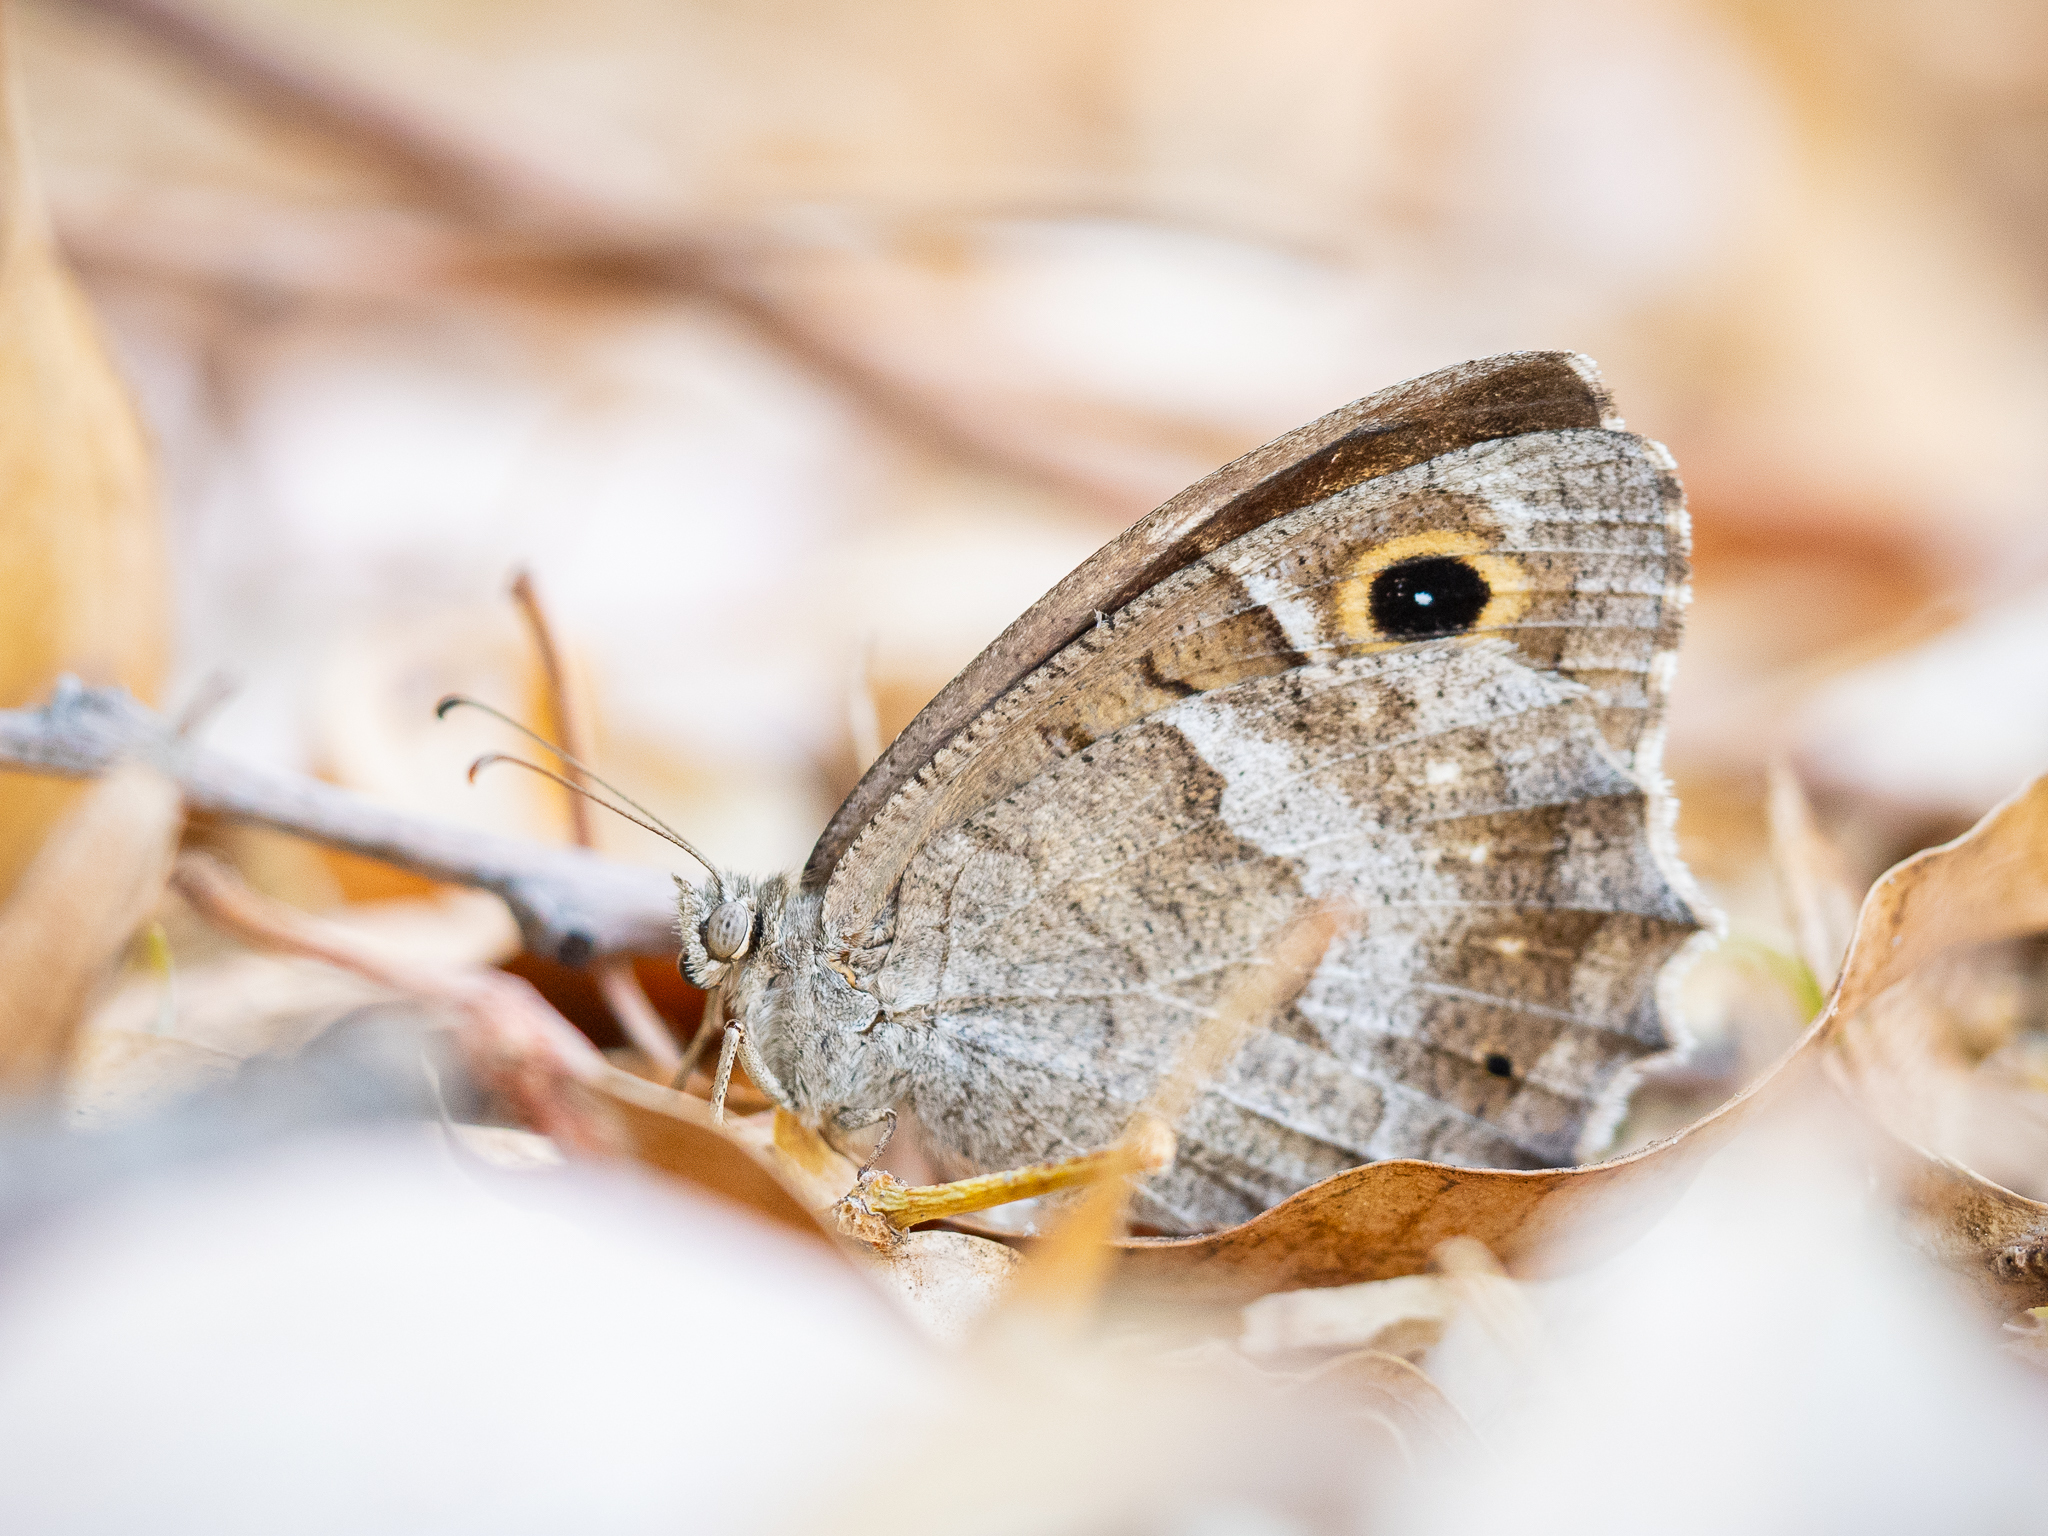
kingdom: Animalia
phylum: Arthropoda
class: Insecta
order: Lepidoptera
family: Nymphalidae
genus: Hipparchia
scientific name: Hipparchia statilinus
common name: Tree grayling
